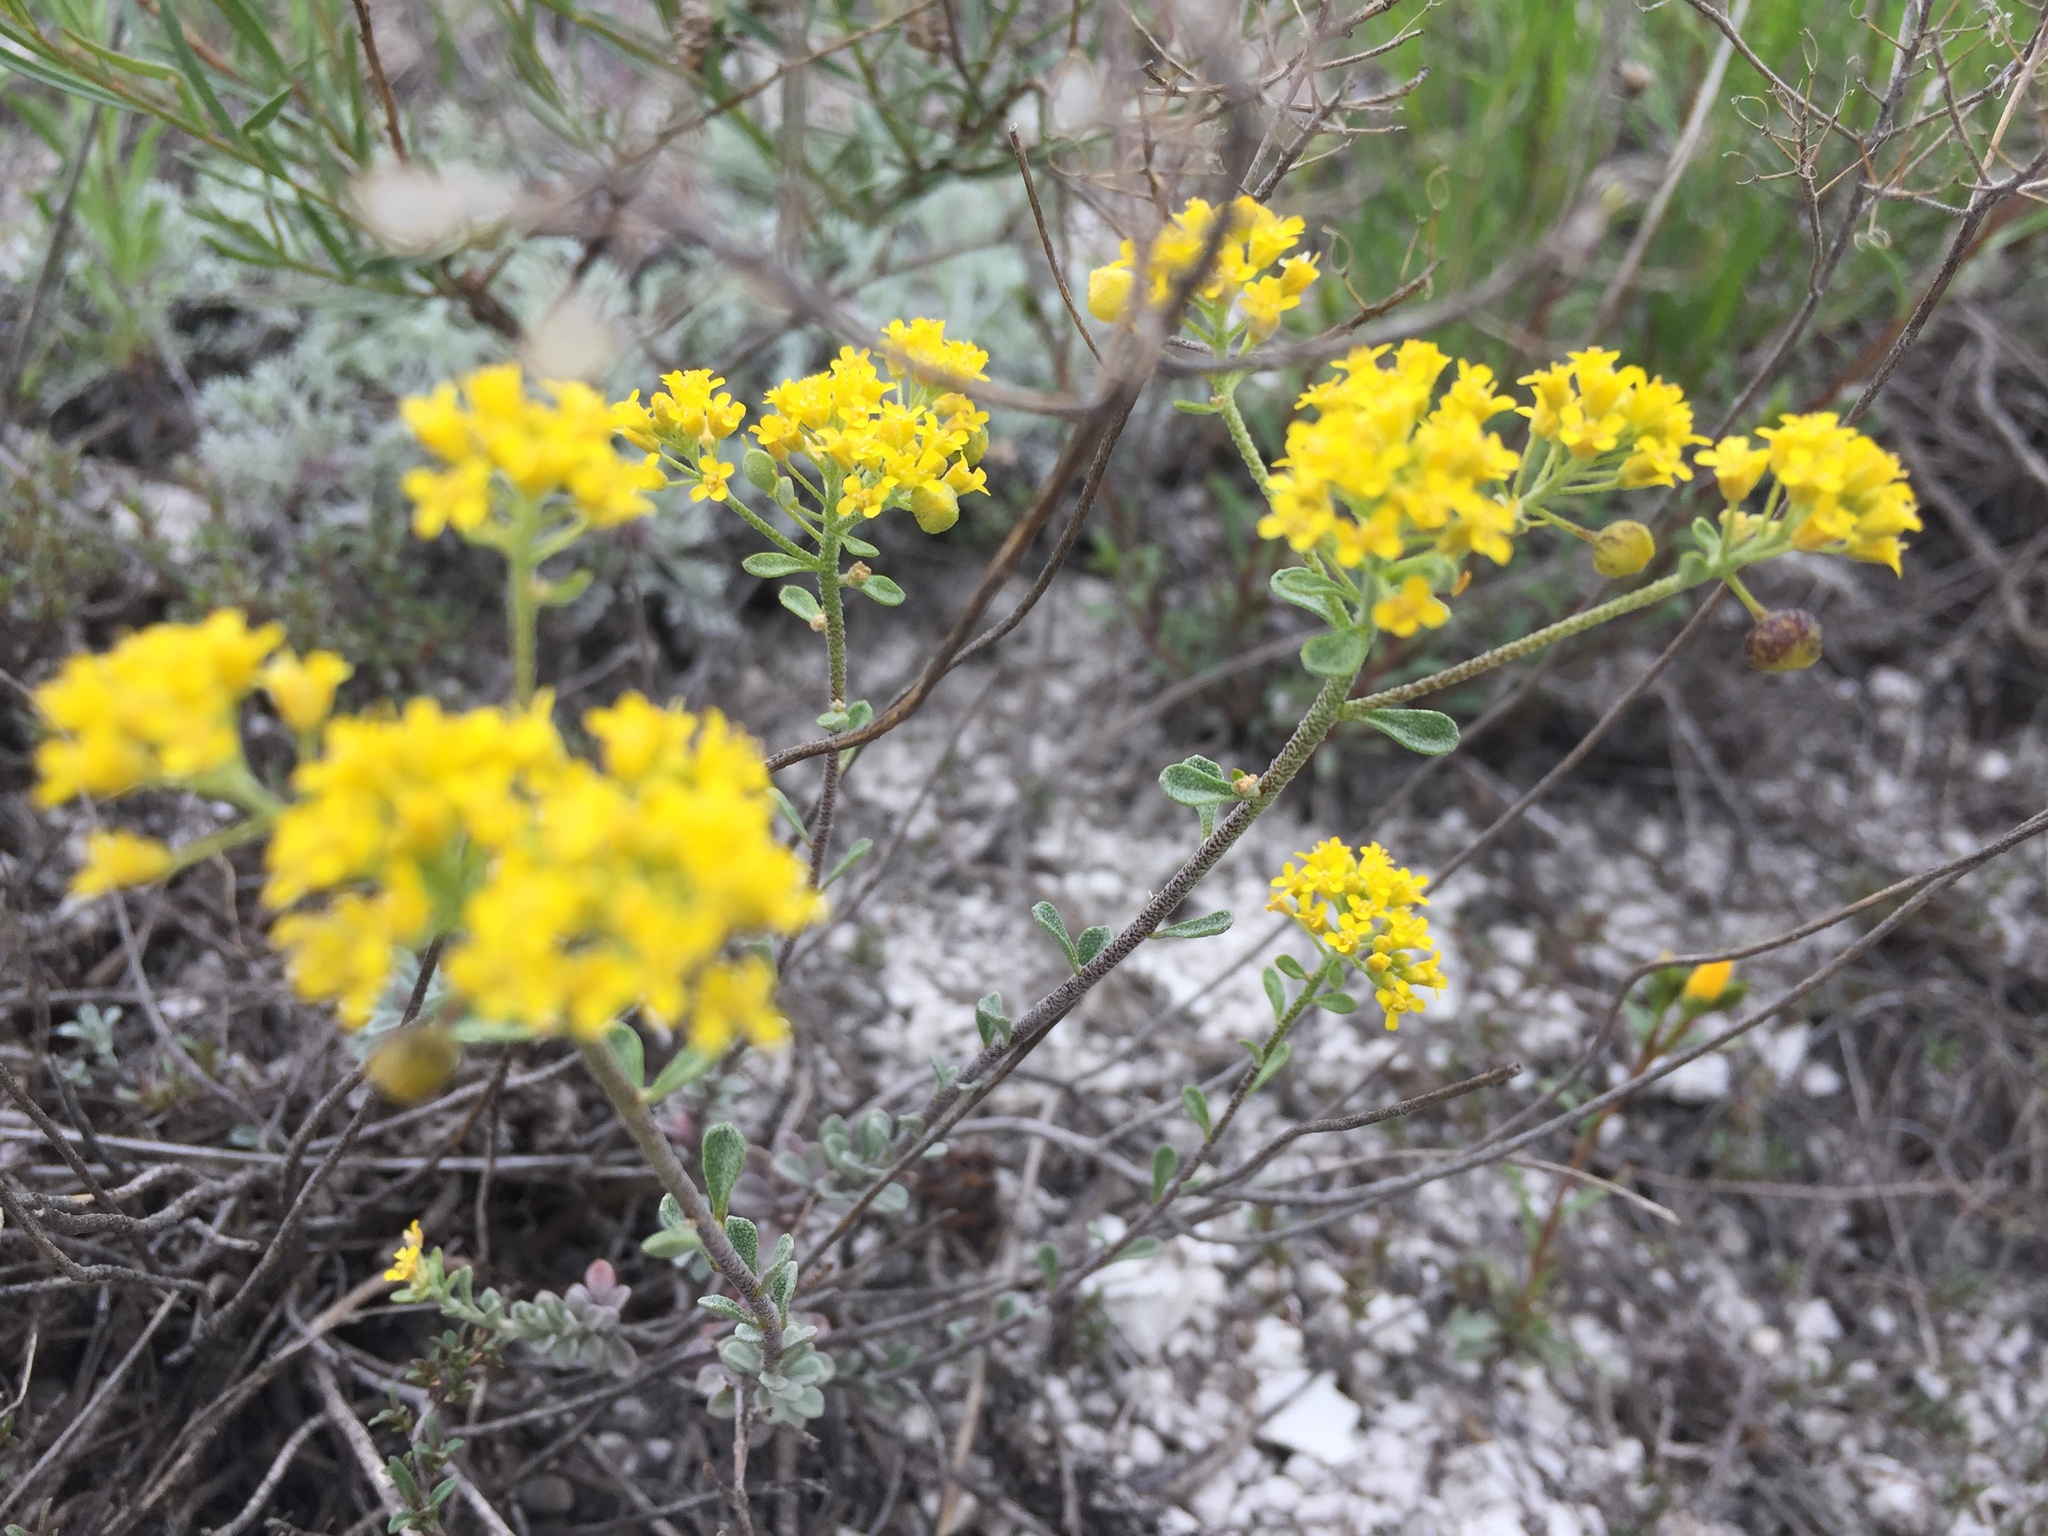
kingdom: Plantae
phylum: Tracheophyta
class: Magnoliopsida
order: Brassicales
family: Brassicaceae
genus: Odontarrhena
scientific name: Odontarrhena tortuosa
